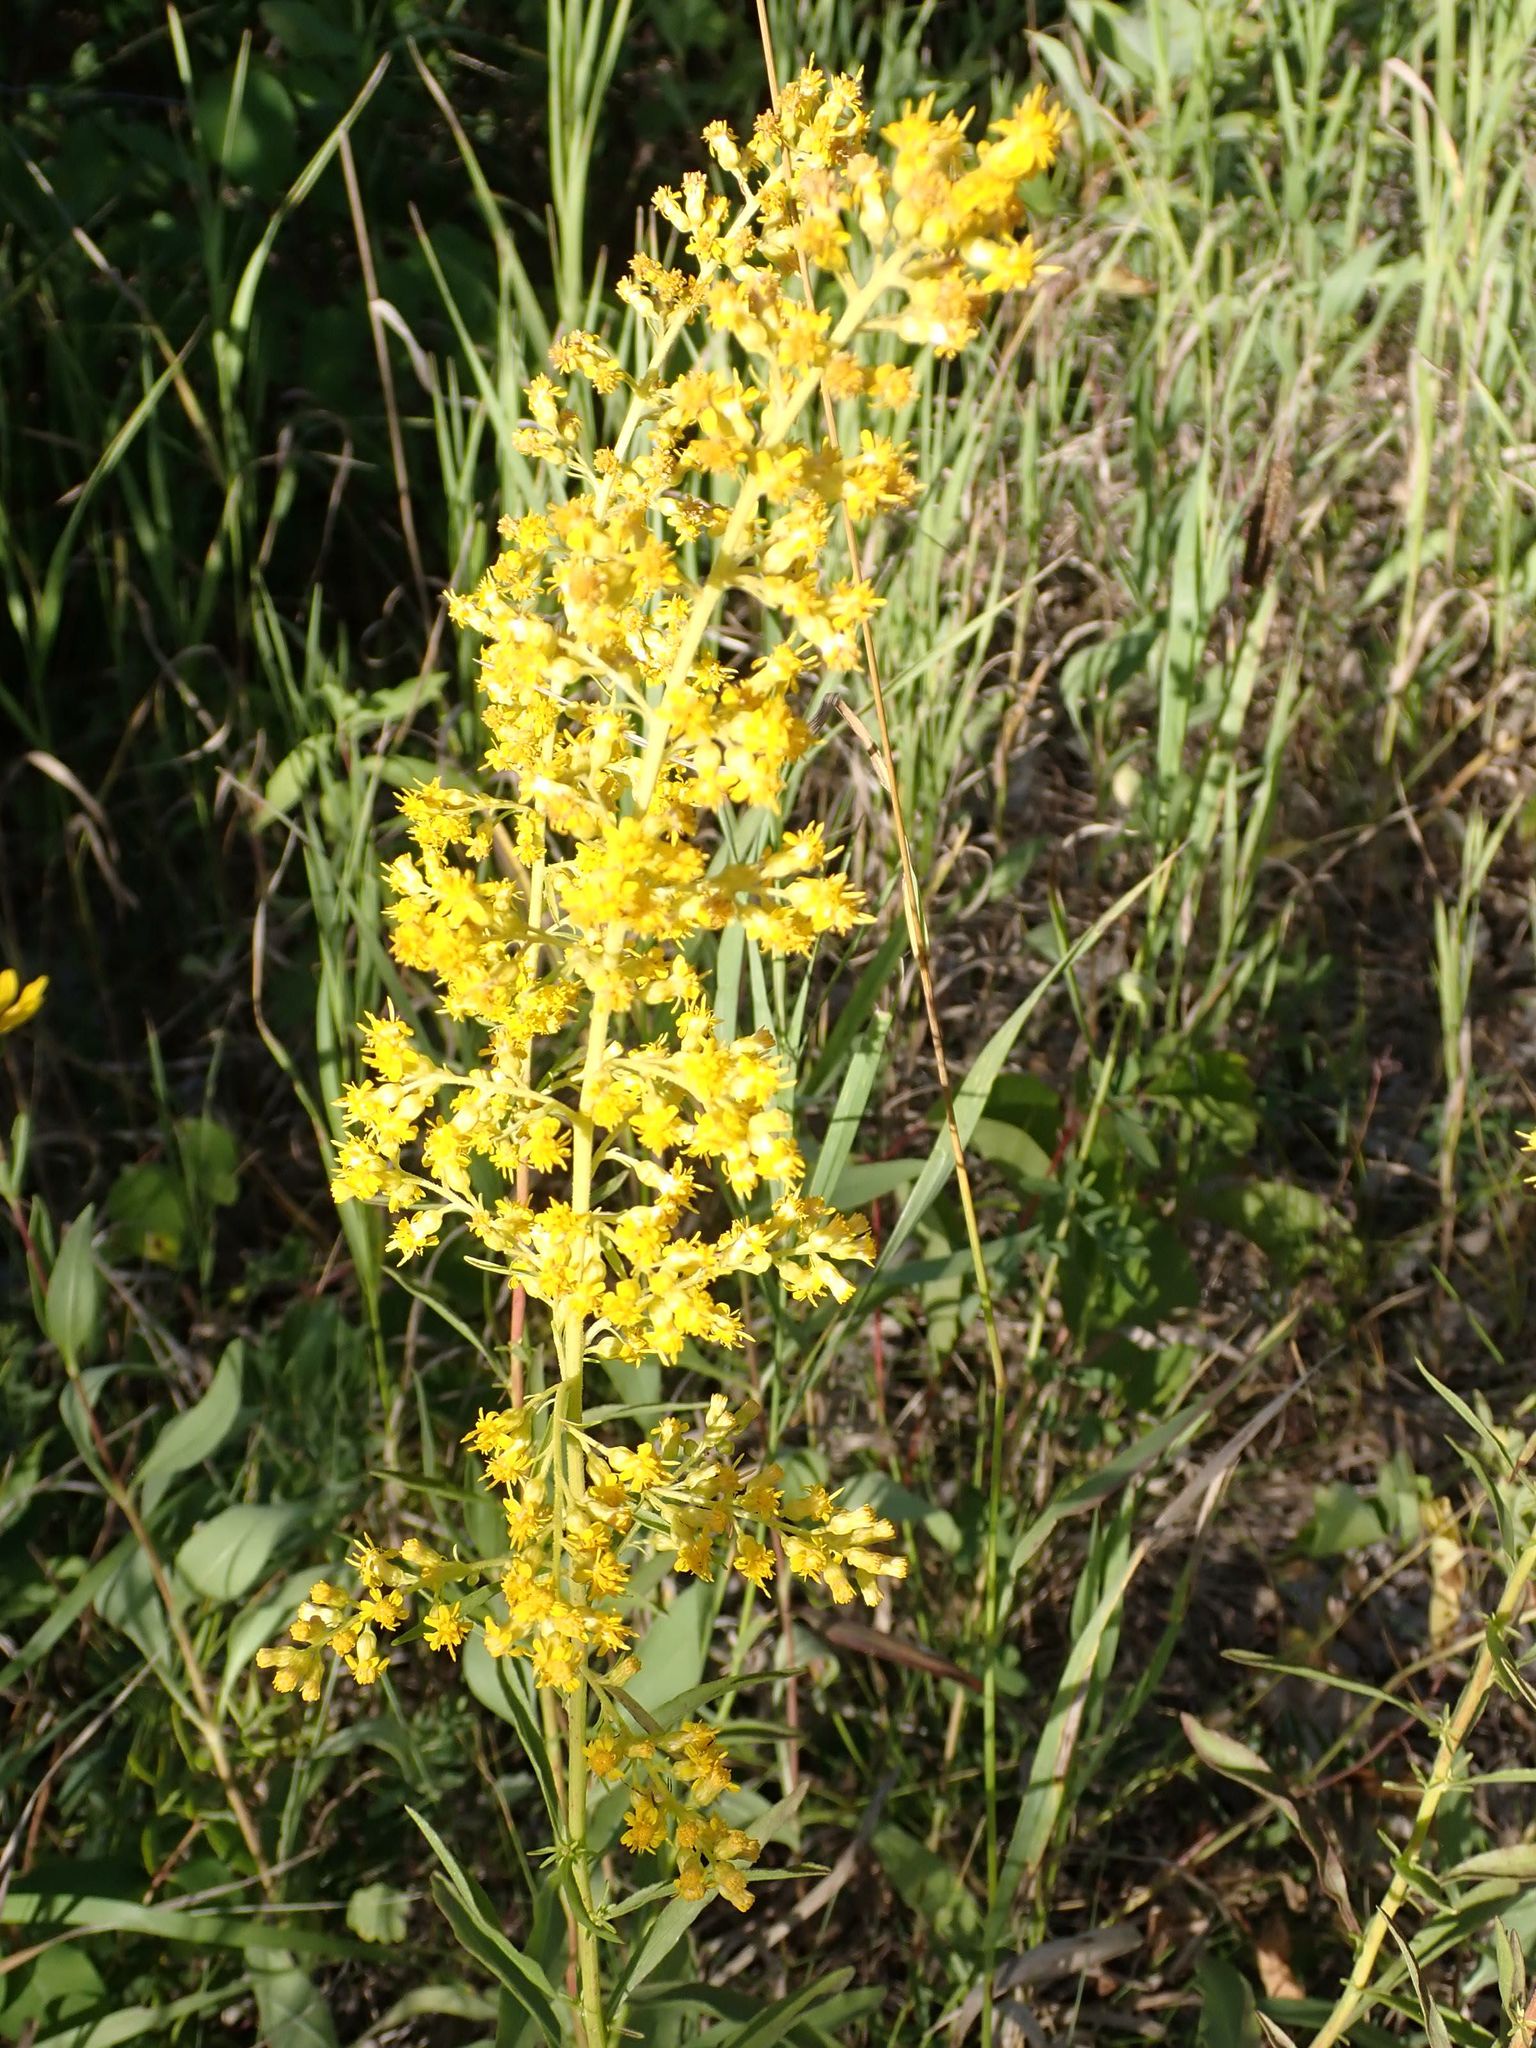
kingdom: Plantae
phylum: Tracheophyta
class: Magnoliopsida
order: Asterales
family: Asteraceae
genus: Solidago
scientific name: Solidago missouriensis
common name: Prairie goldenrod
